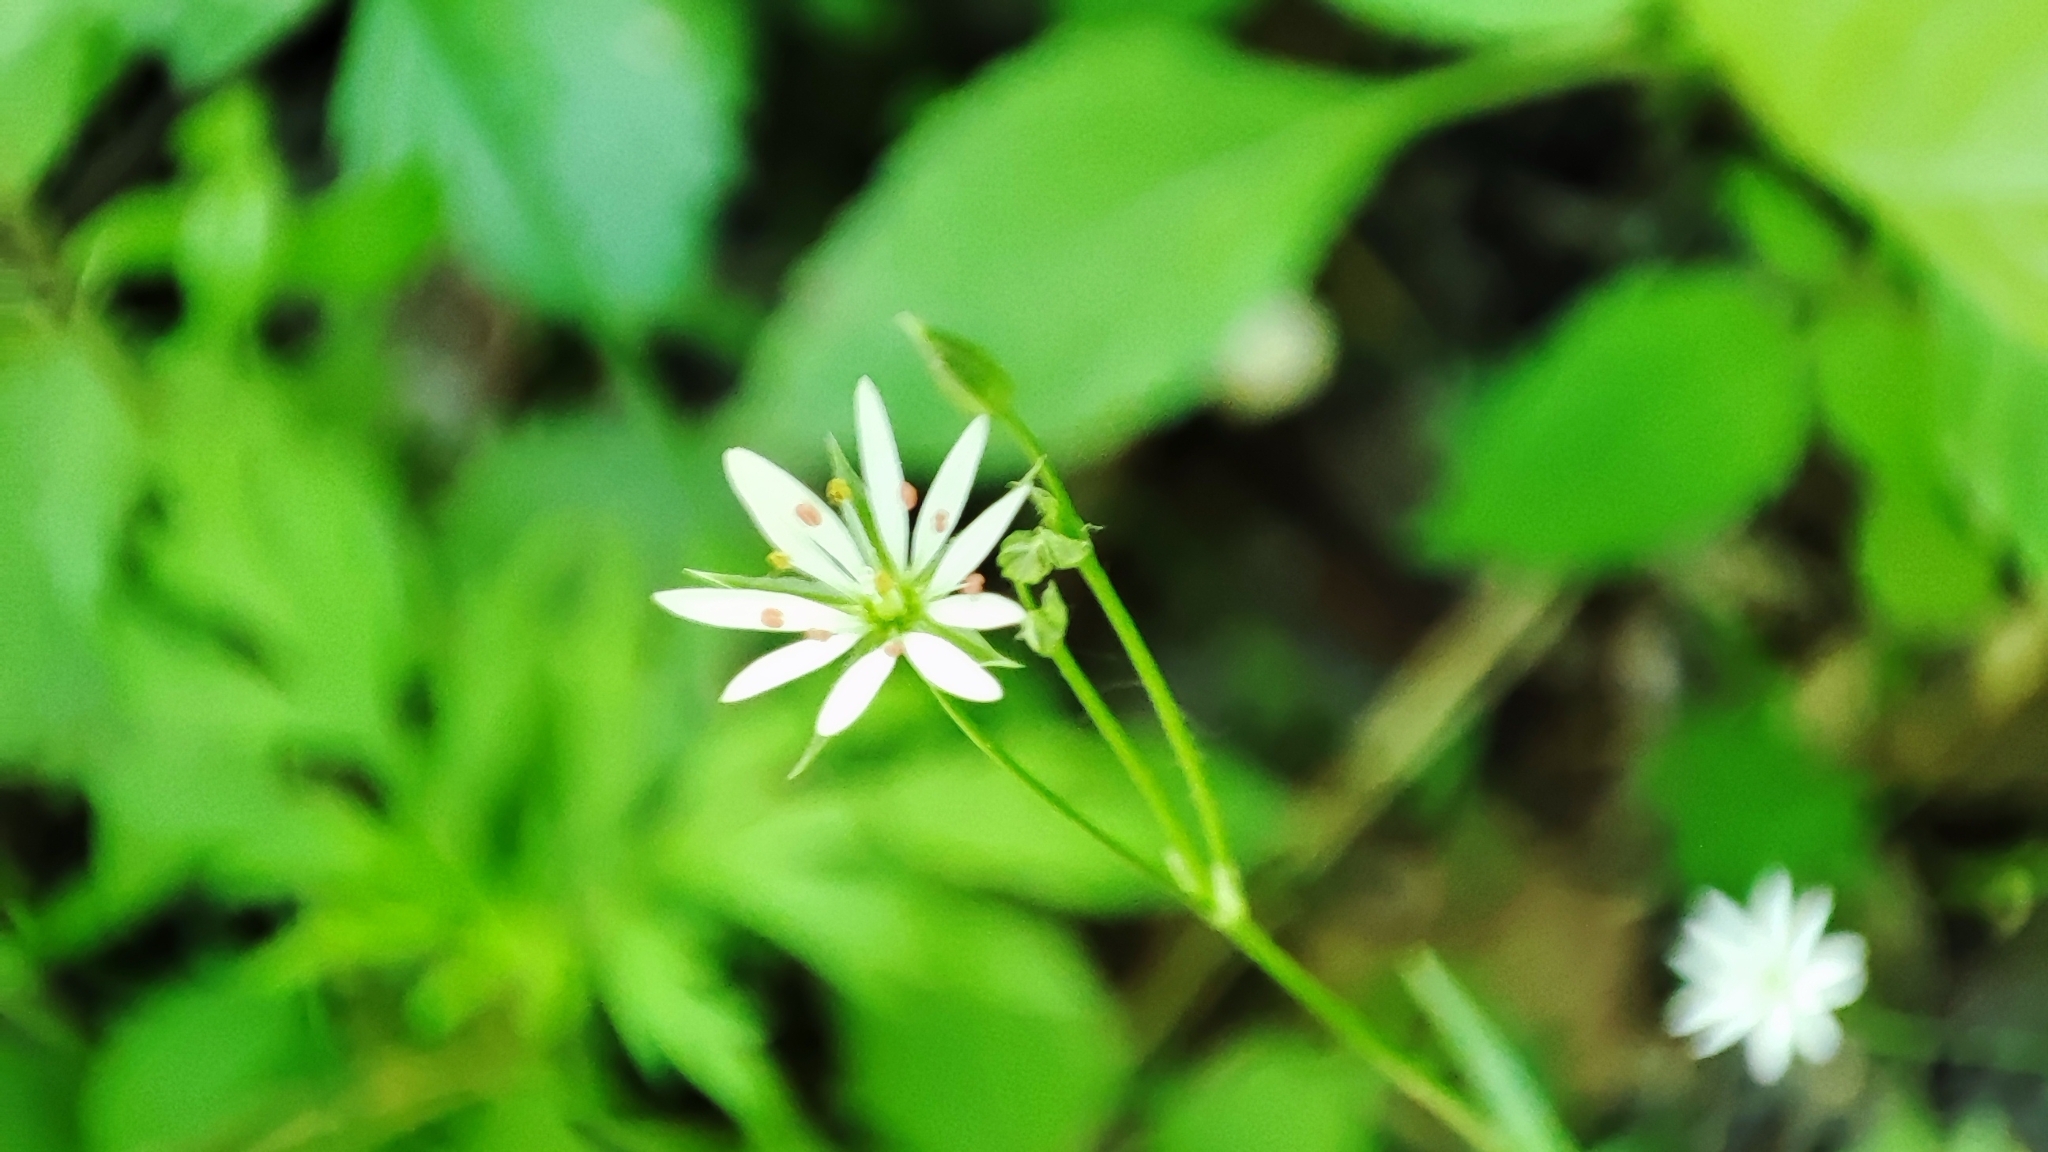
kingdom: Plantae
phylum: Tracheophyta
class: Magnoliopsida
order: Caryophyllales
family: Caryophyllaceae
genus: Stellaria
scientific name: Stellaria graminea
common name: Grass-like starwort
